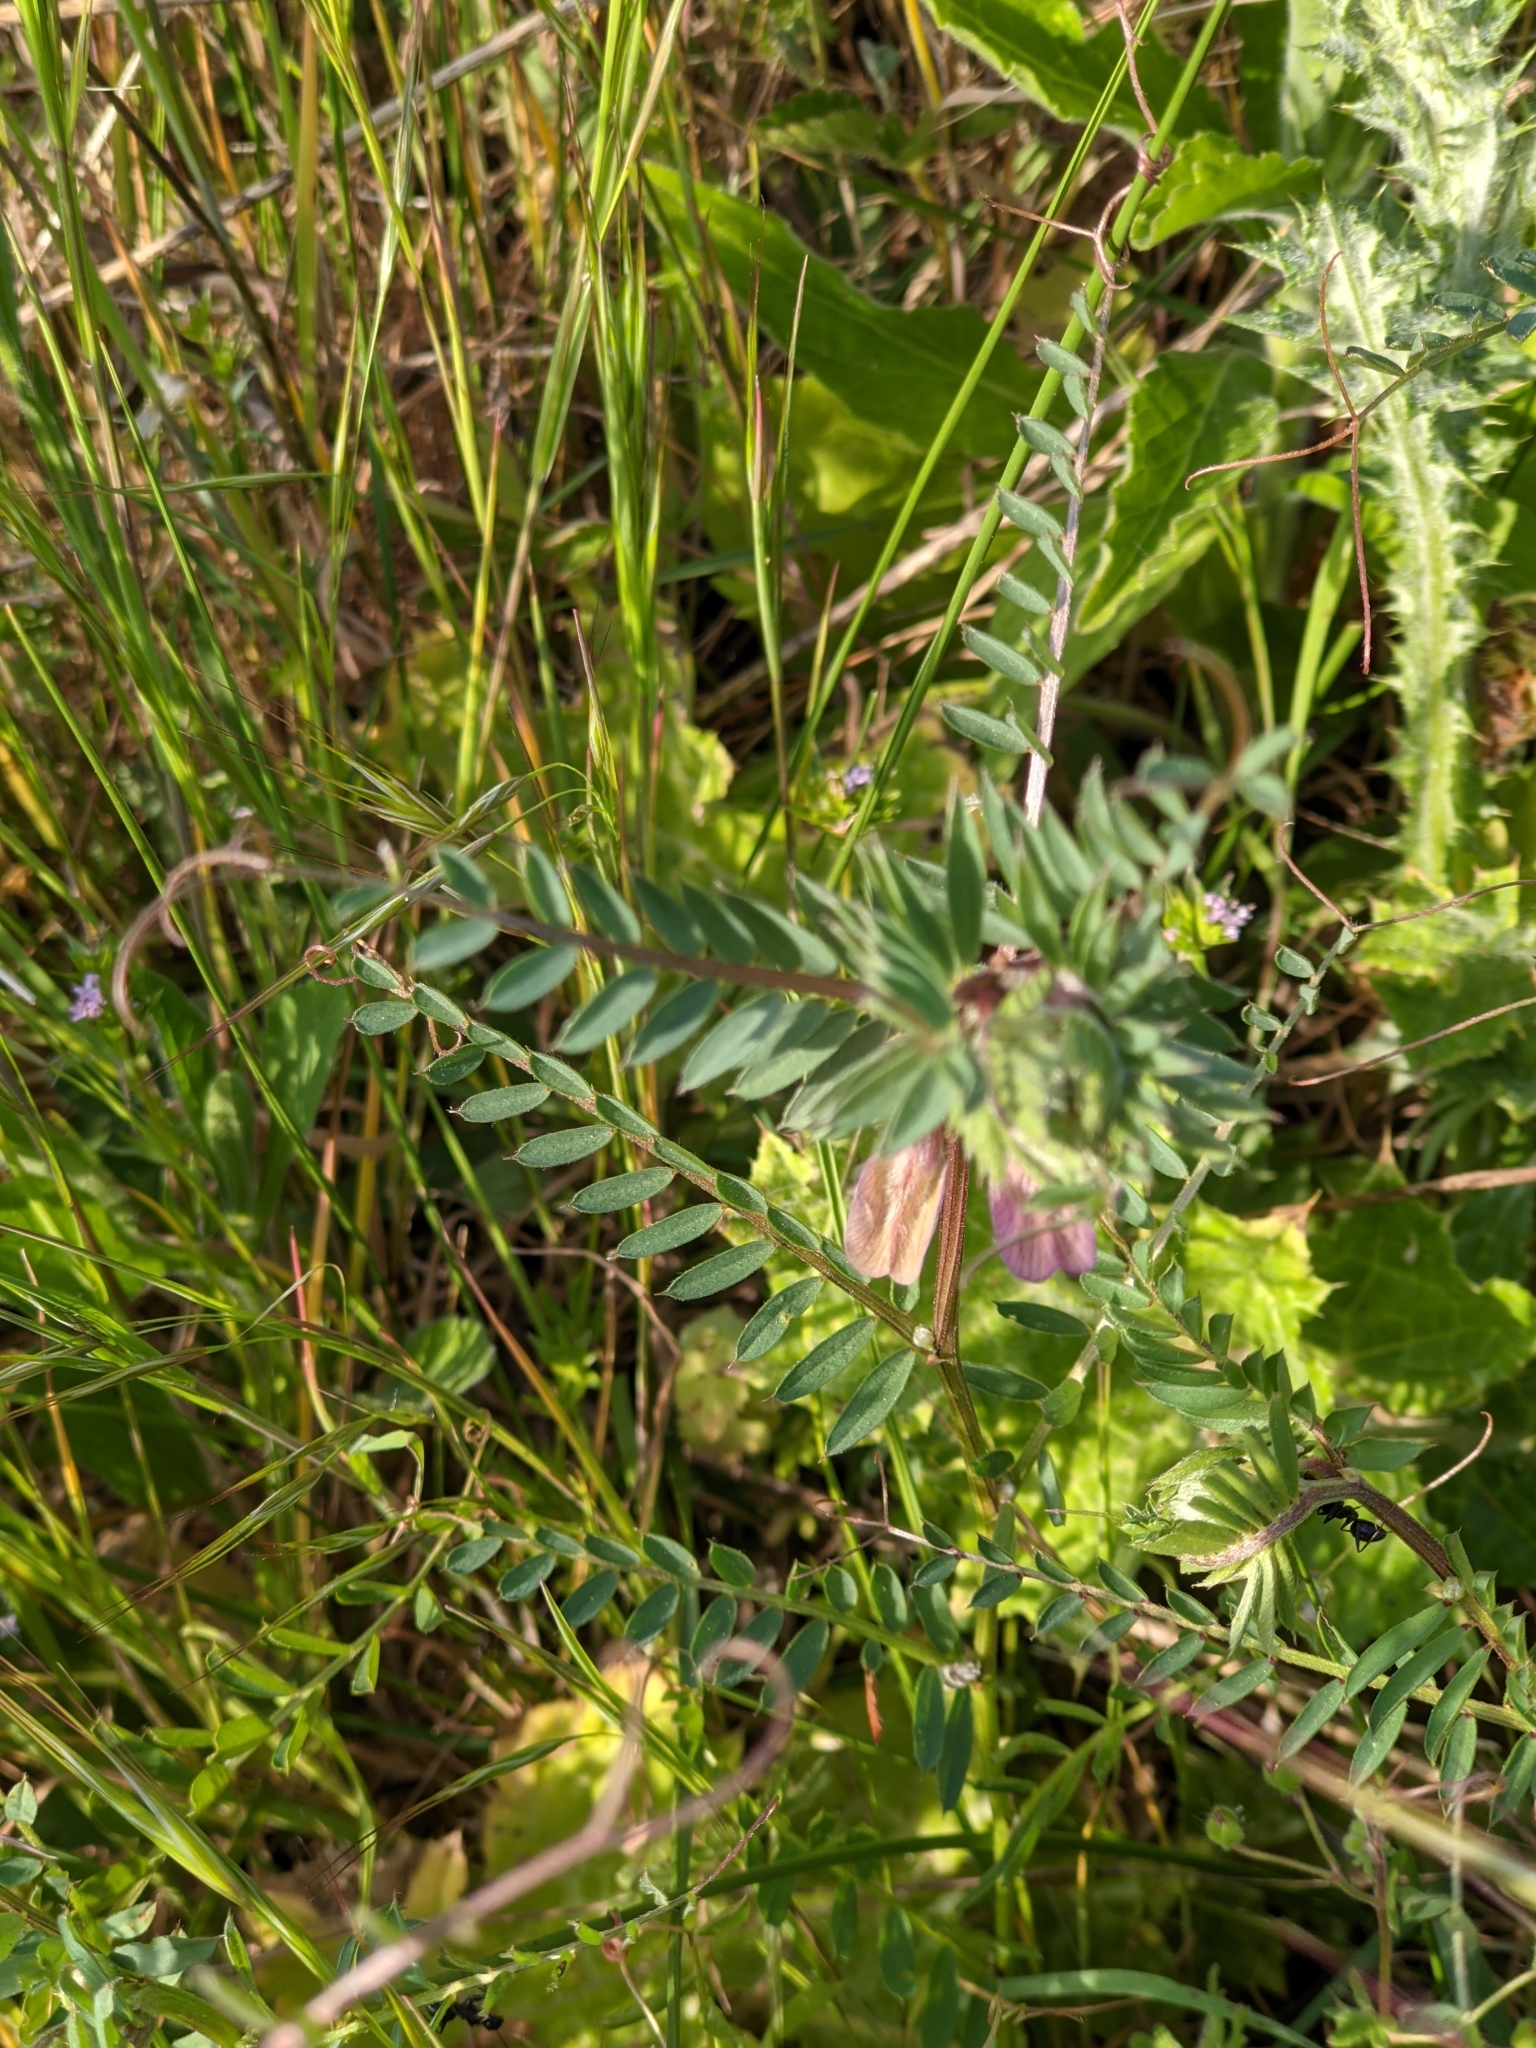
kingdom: Plantae
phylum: Tracheophyta
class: Magnoliopsida
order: Fabales
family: Fabaceae
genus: Vicia
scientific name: Vicia pannonica
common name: Hungarian vetch
